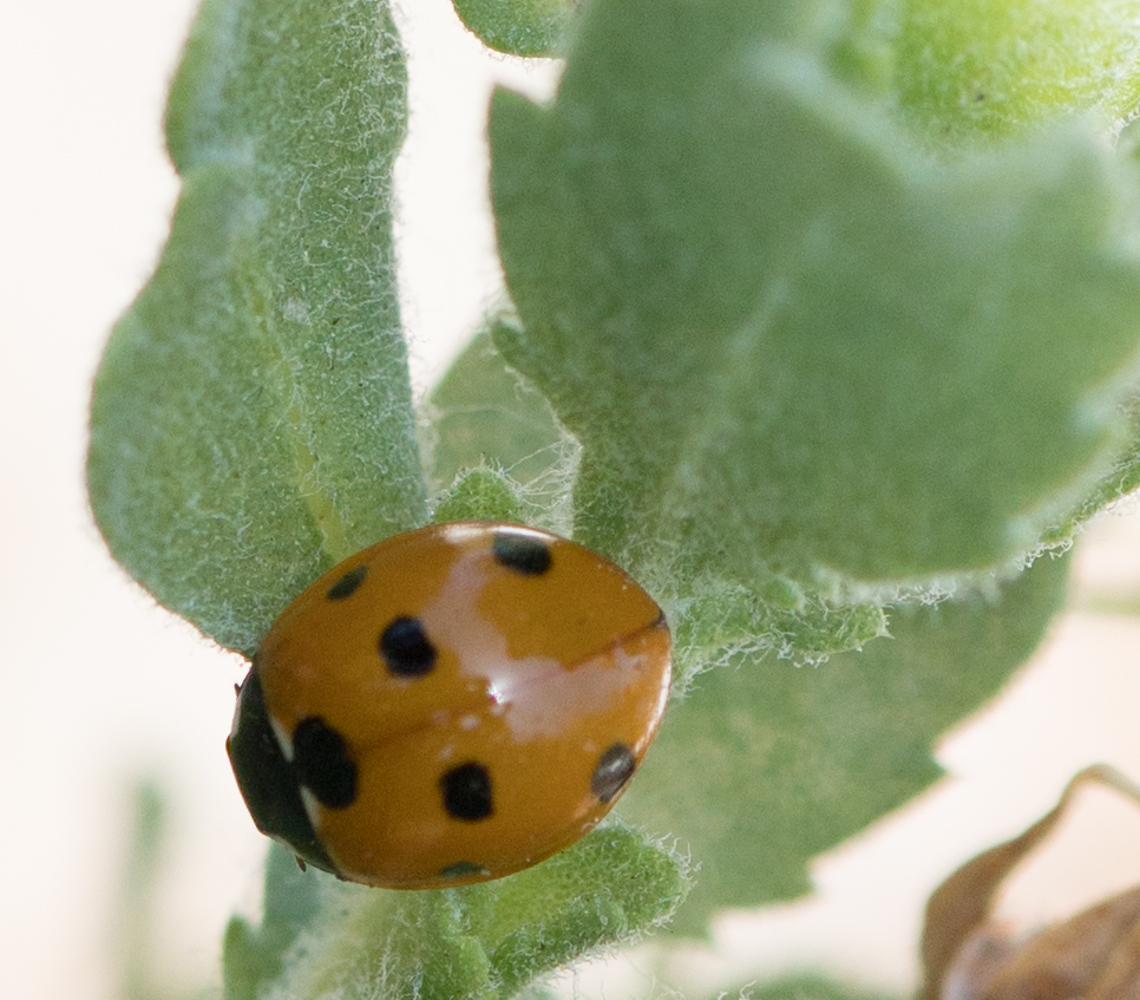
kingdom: Animalia
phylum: Arthropoda
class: Insecta
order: Coleoptera
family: Coccinellidae
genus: Coccinella
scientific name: Coccinella septempunctata
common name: Sevenspotted lady beetle
